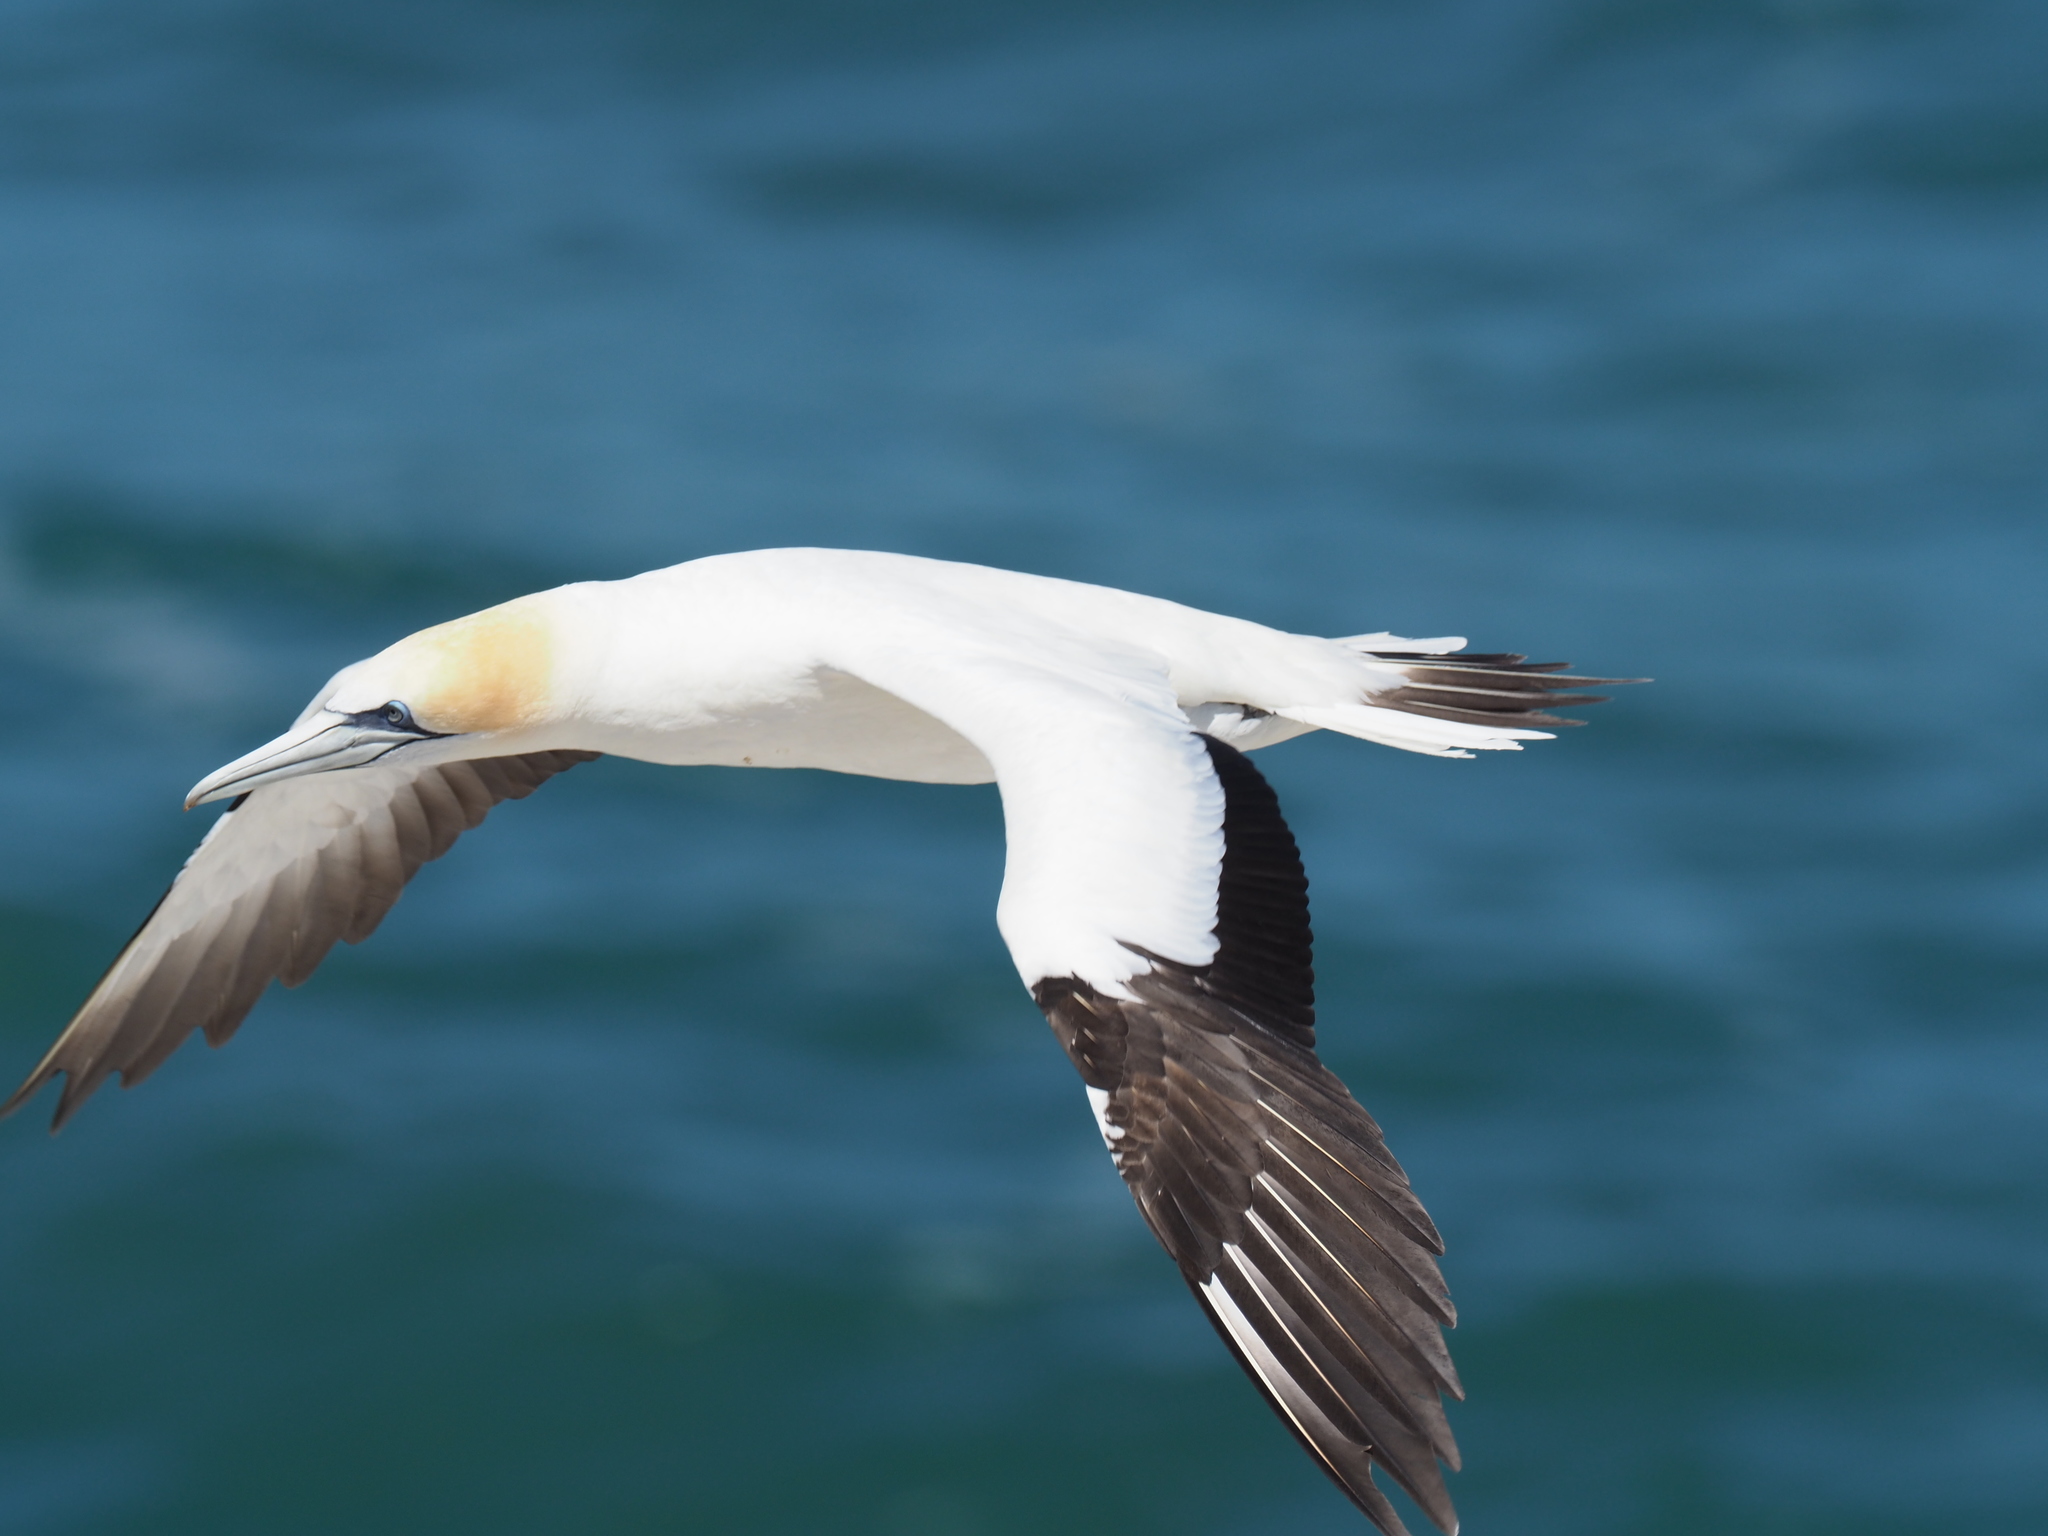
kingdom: Animalia
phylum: Chordata
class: Aves
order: Suliformes
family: Sulidae
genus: Morus
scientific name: Morus serrator
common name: Australasian gannet
